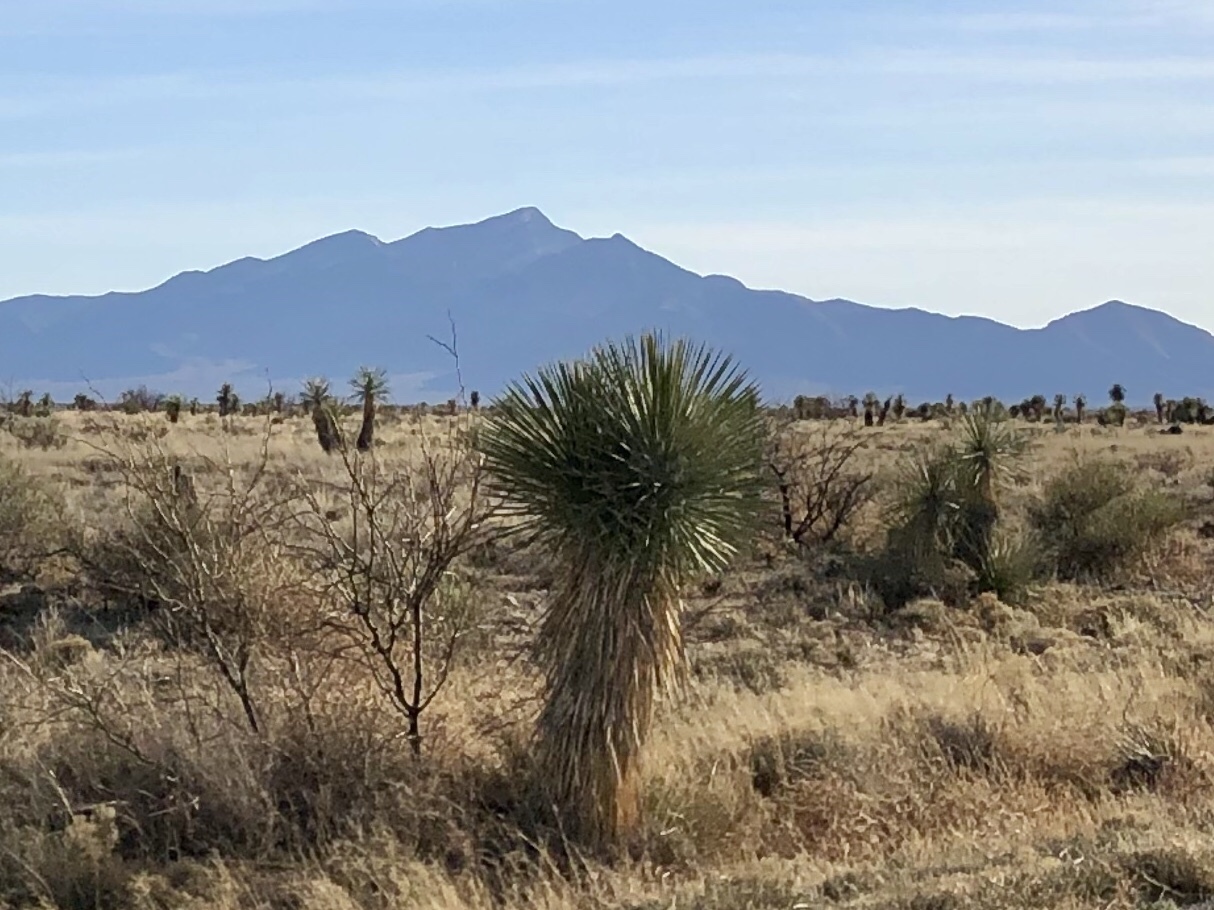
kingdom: Plantae
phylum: Tracheophyta
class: Liliopsida
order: Asparagales
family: Asparagaceae
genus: Yucca
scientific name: Yucca elata
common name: Palmella
